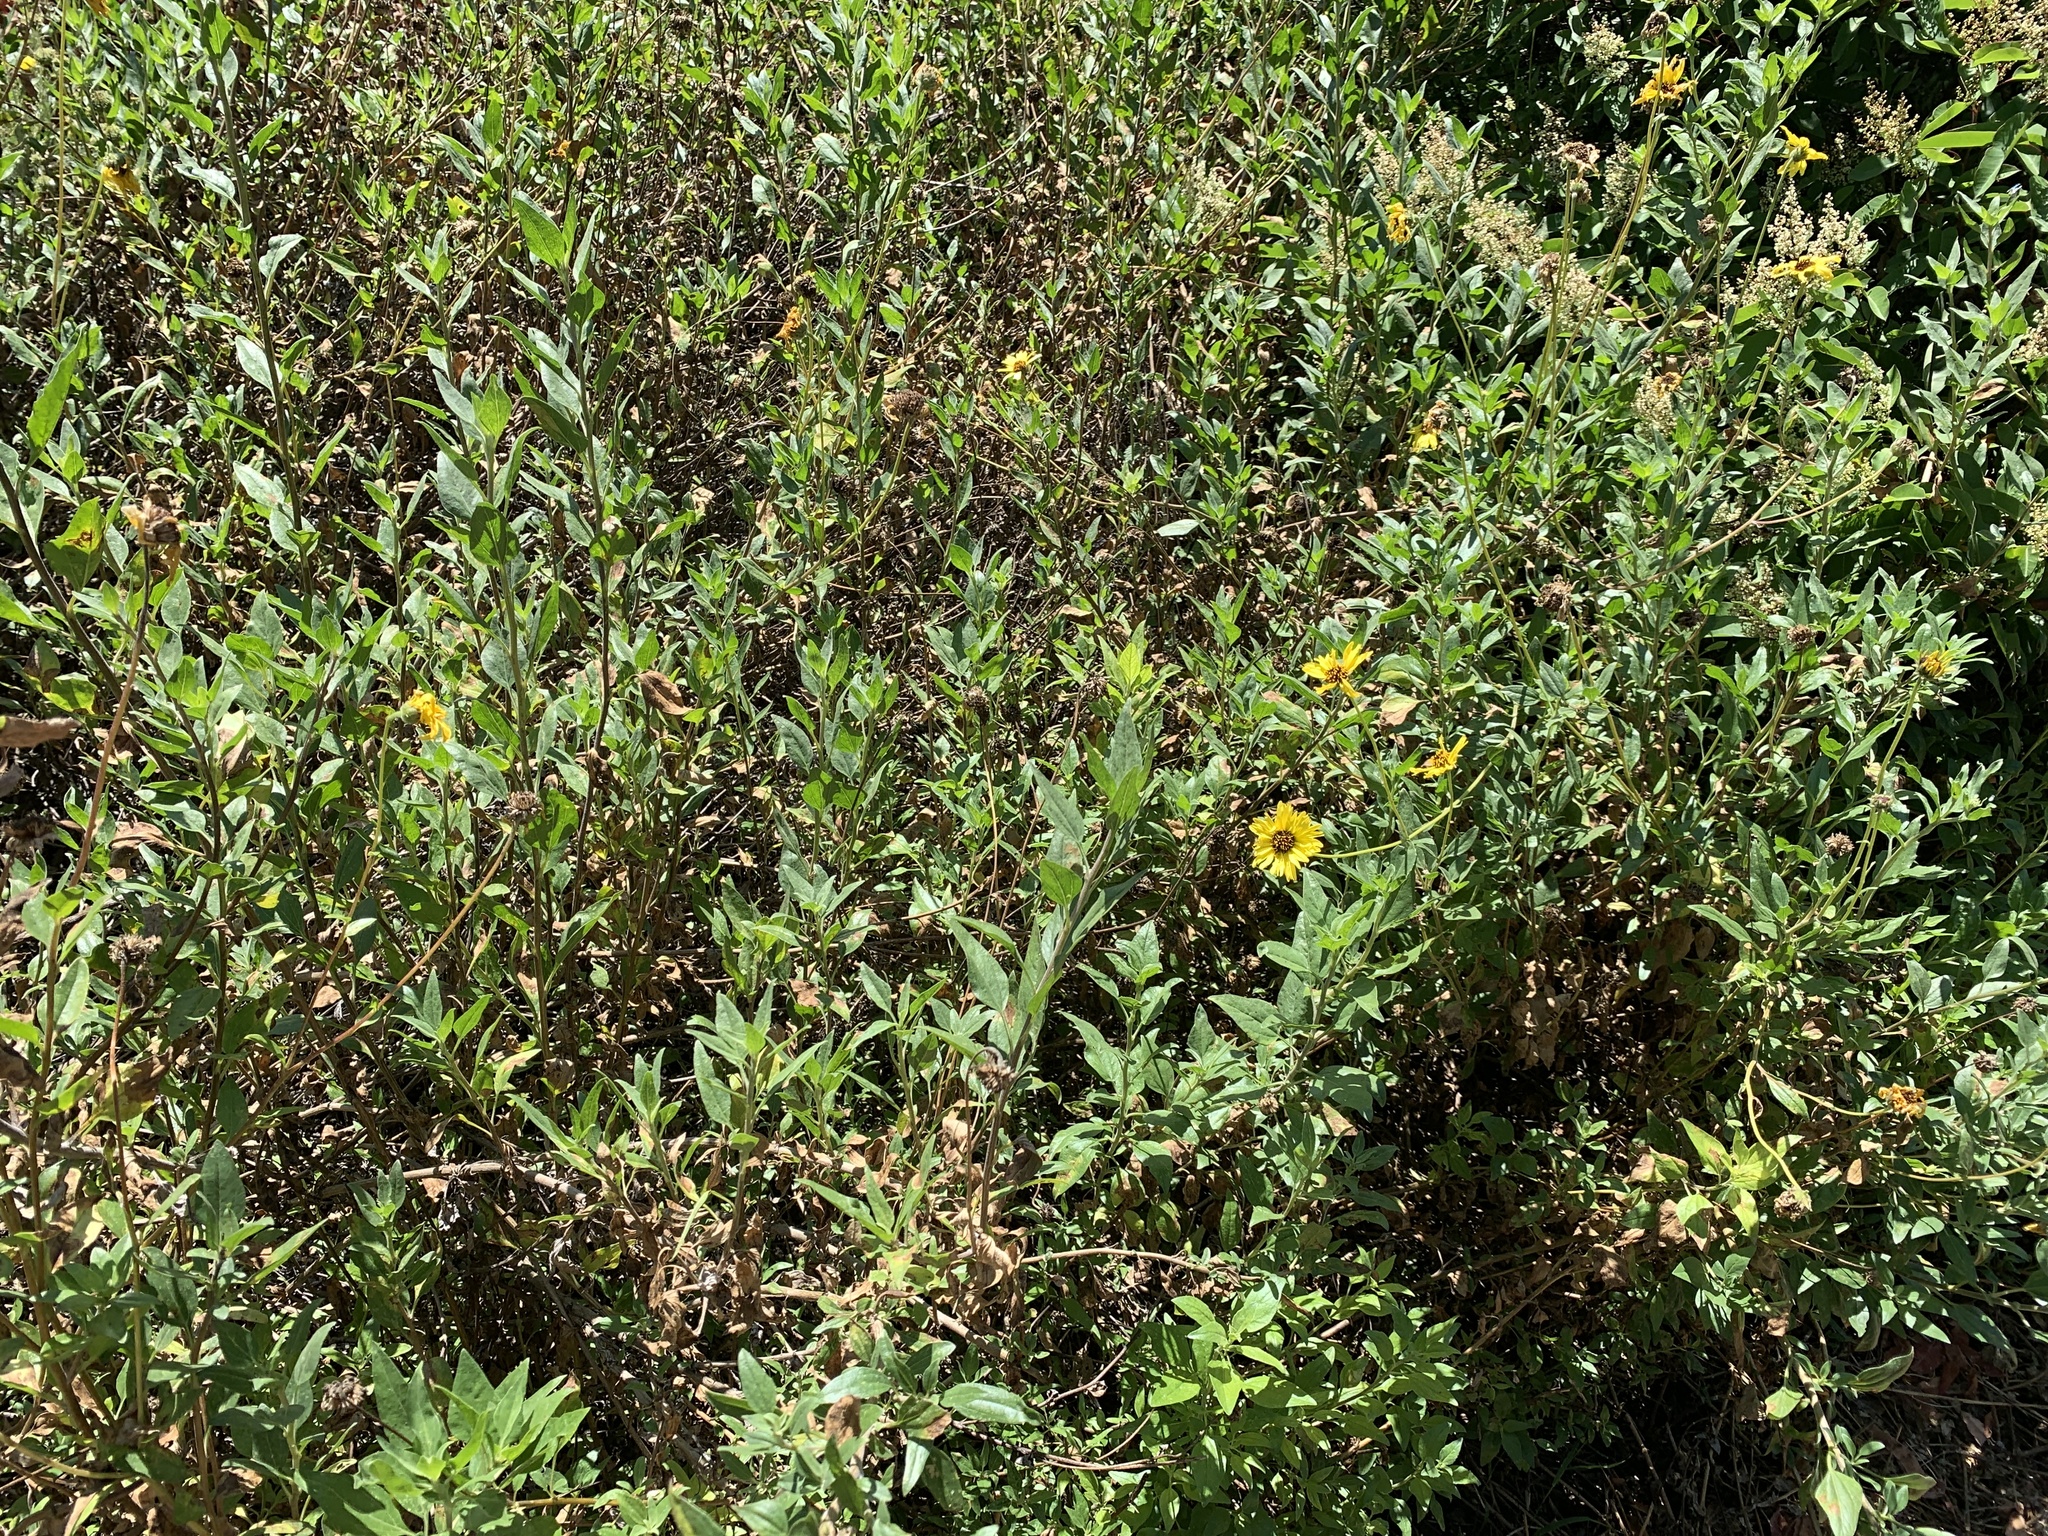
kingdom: Plantae
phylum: Tracheophyta
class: Magnoliopsida
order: Asterales
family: Asteraceae
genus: Encelia
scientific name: Encelia californica
